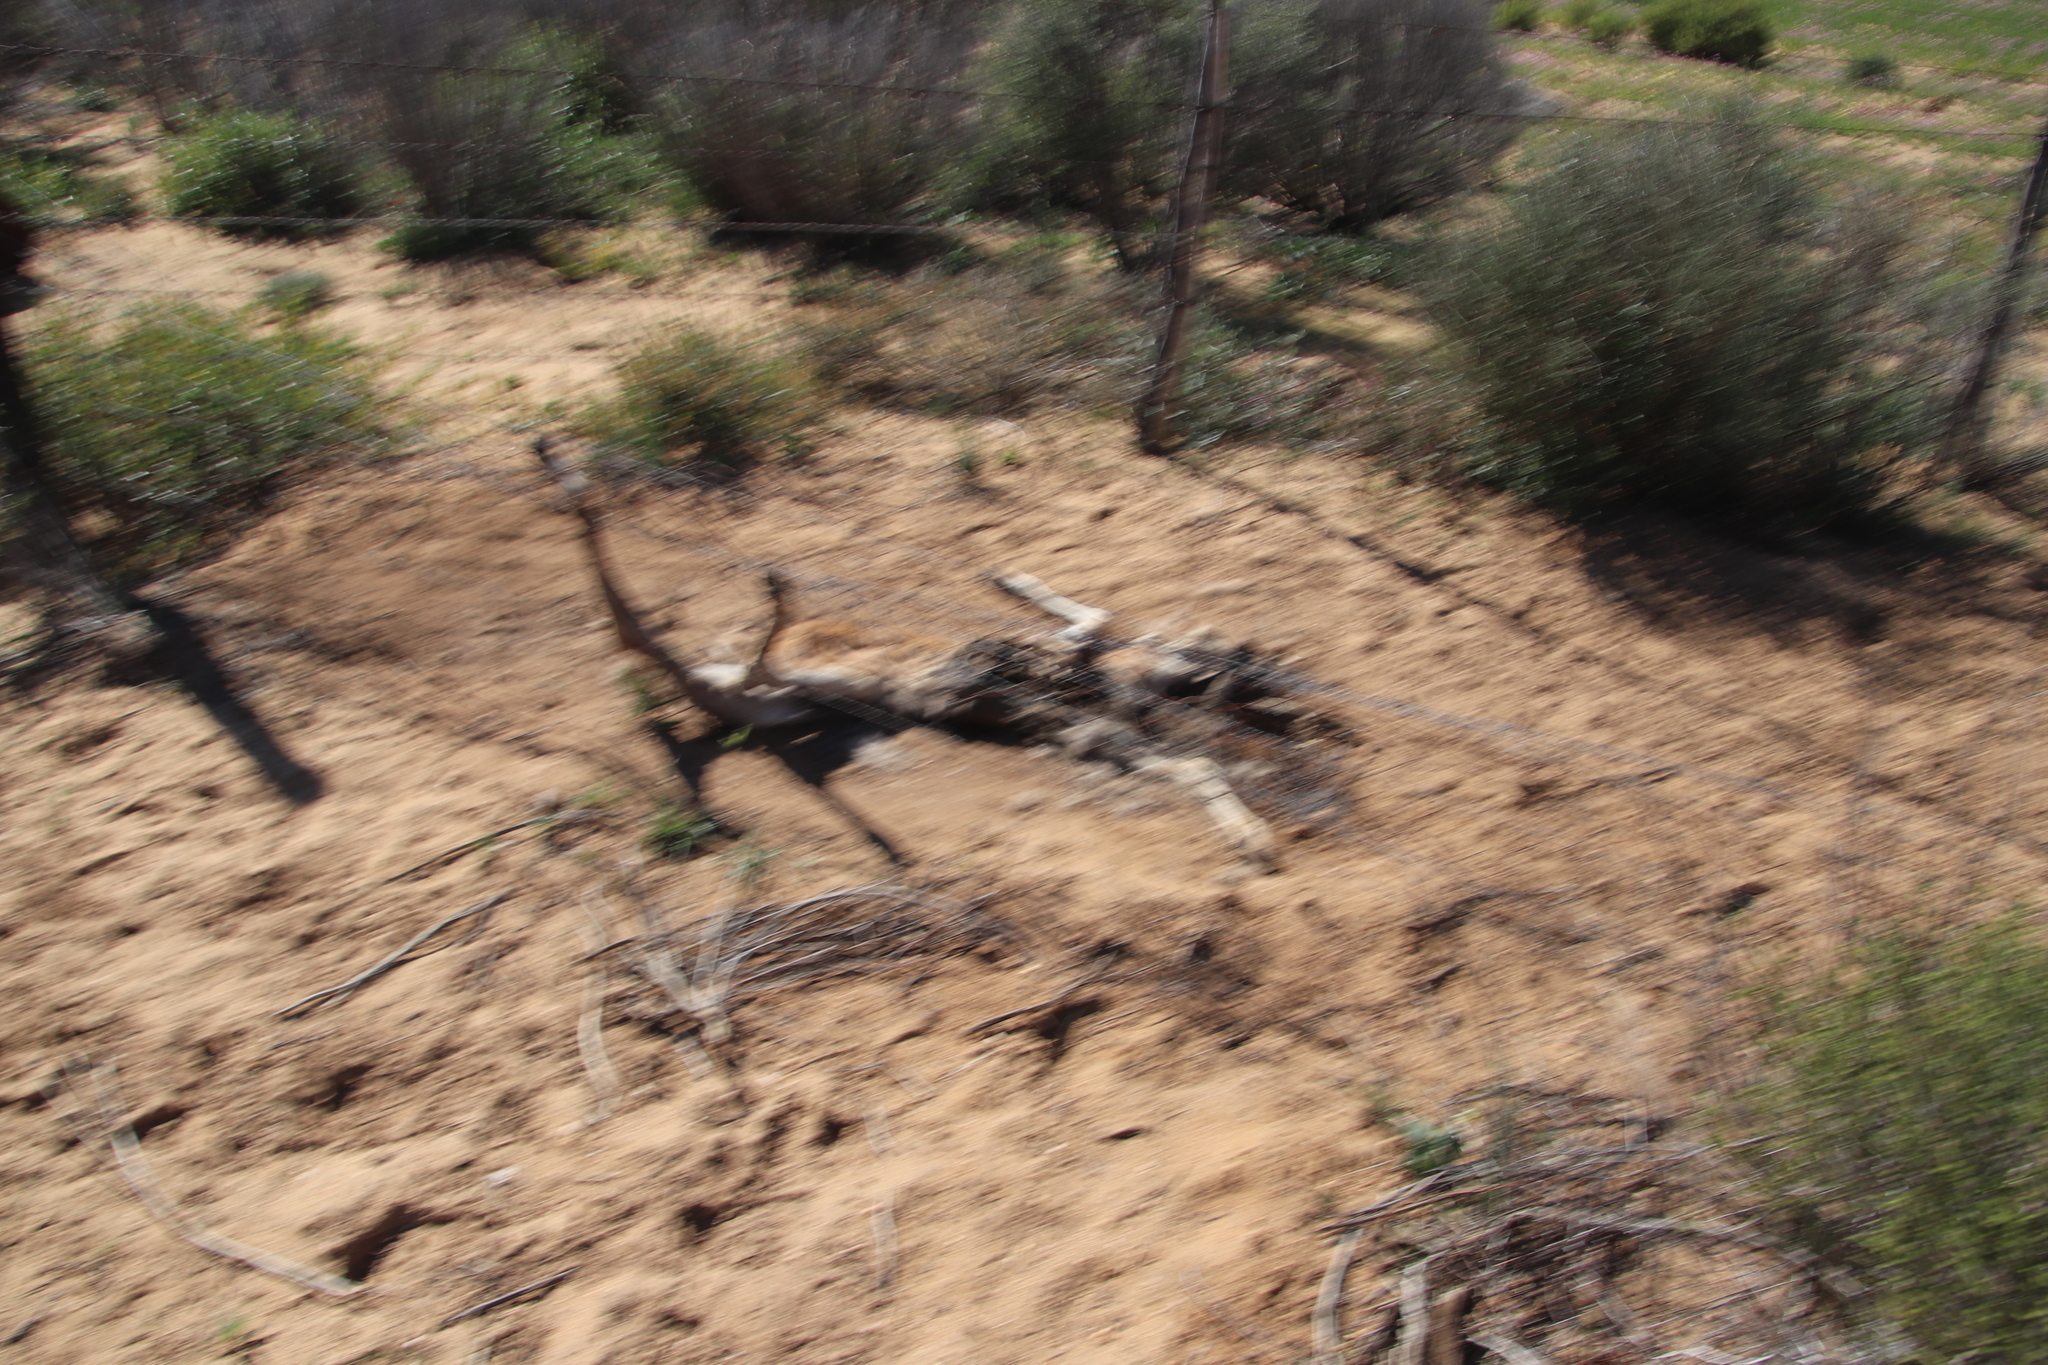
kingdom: Animalia
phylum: Chordata
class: Mammalia
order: Artiodactyla
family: Bovidae
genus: Antidorcas
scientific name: Antidorcas marsupialis
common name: Springbok
